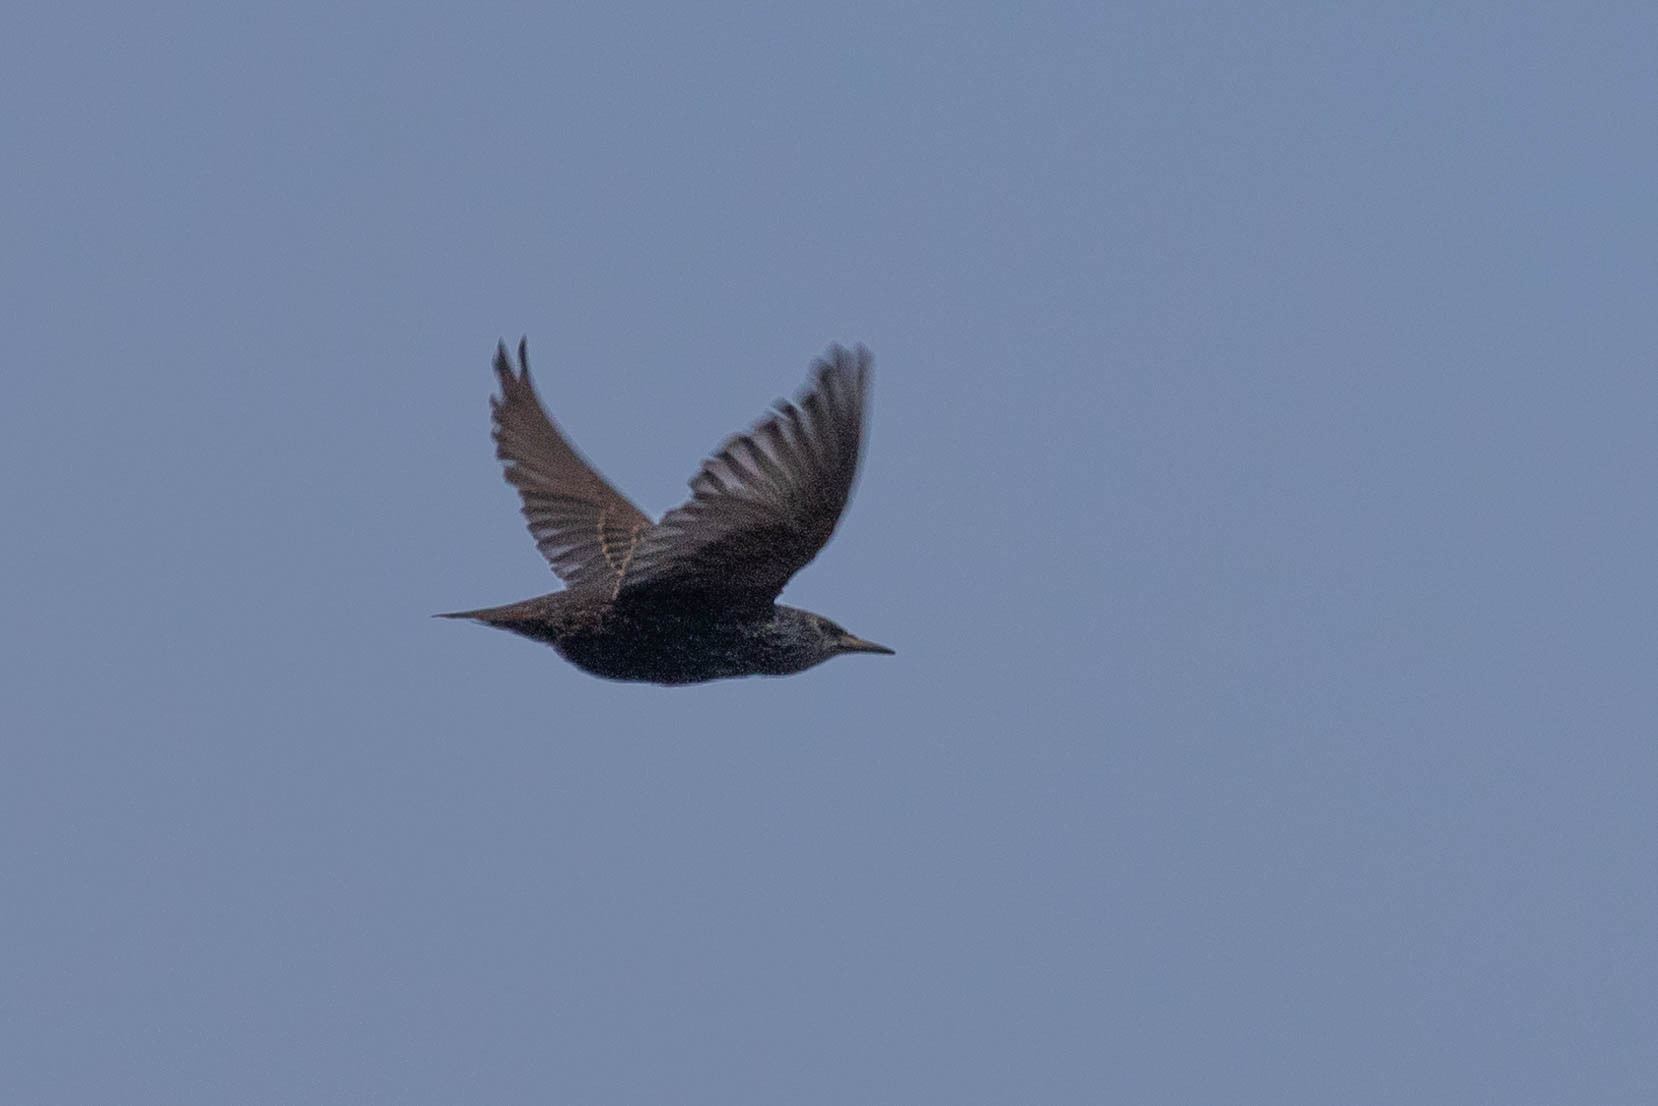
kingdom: Animalia
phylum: Chordata
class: Aves
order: Passeriformes
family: Sturnidae
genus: Sturnus
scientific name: Sturnus vulgaris
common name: Common starling
